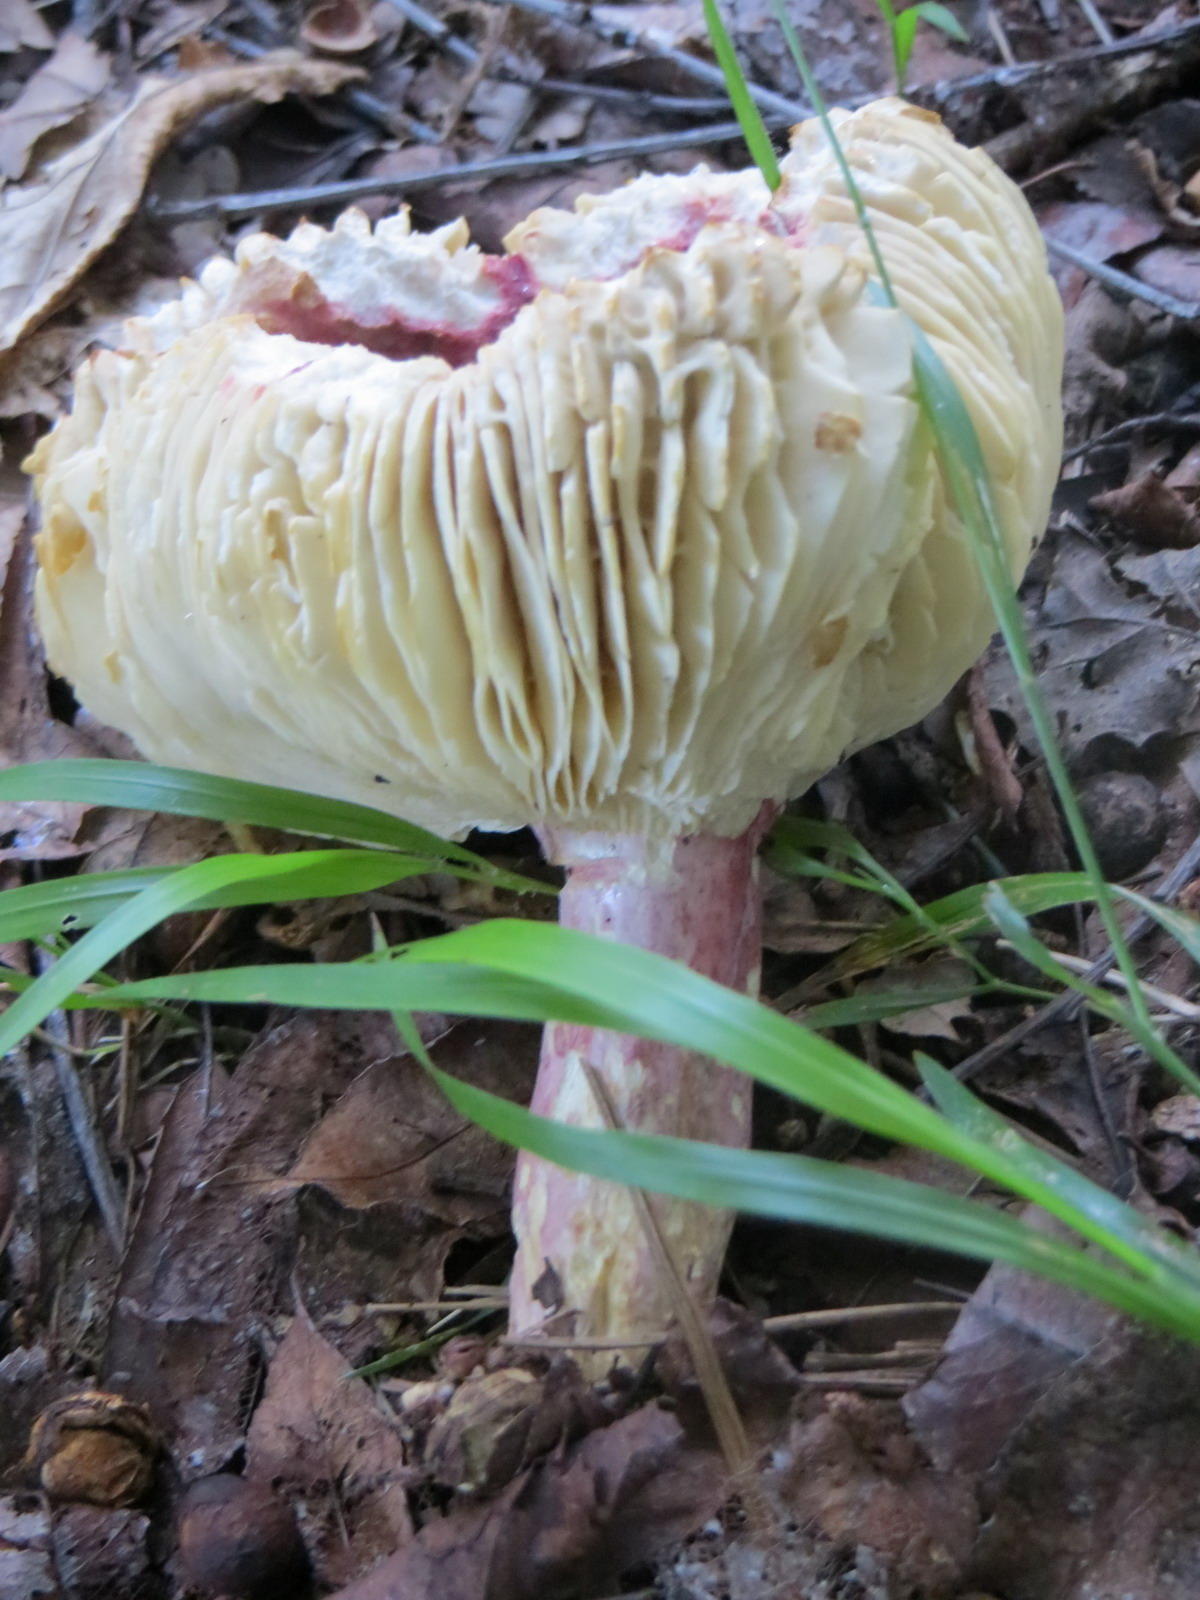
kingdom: Fungi
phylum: Basidiomycota
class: Agaricomycetes
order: Russulales
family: Russulaceae
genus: Russula
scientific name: Russula sardonia
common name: Primrose brittlegill
